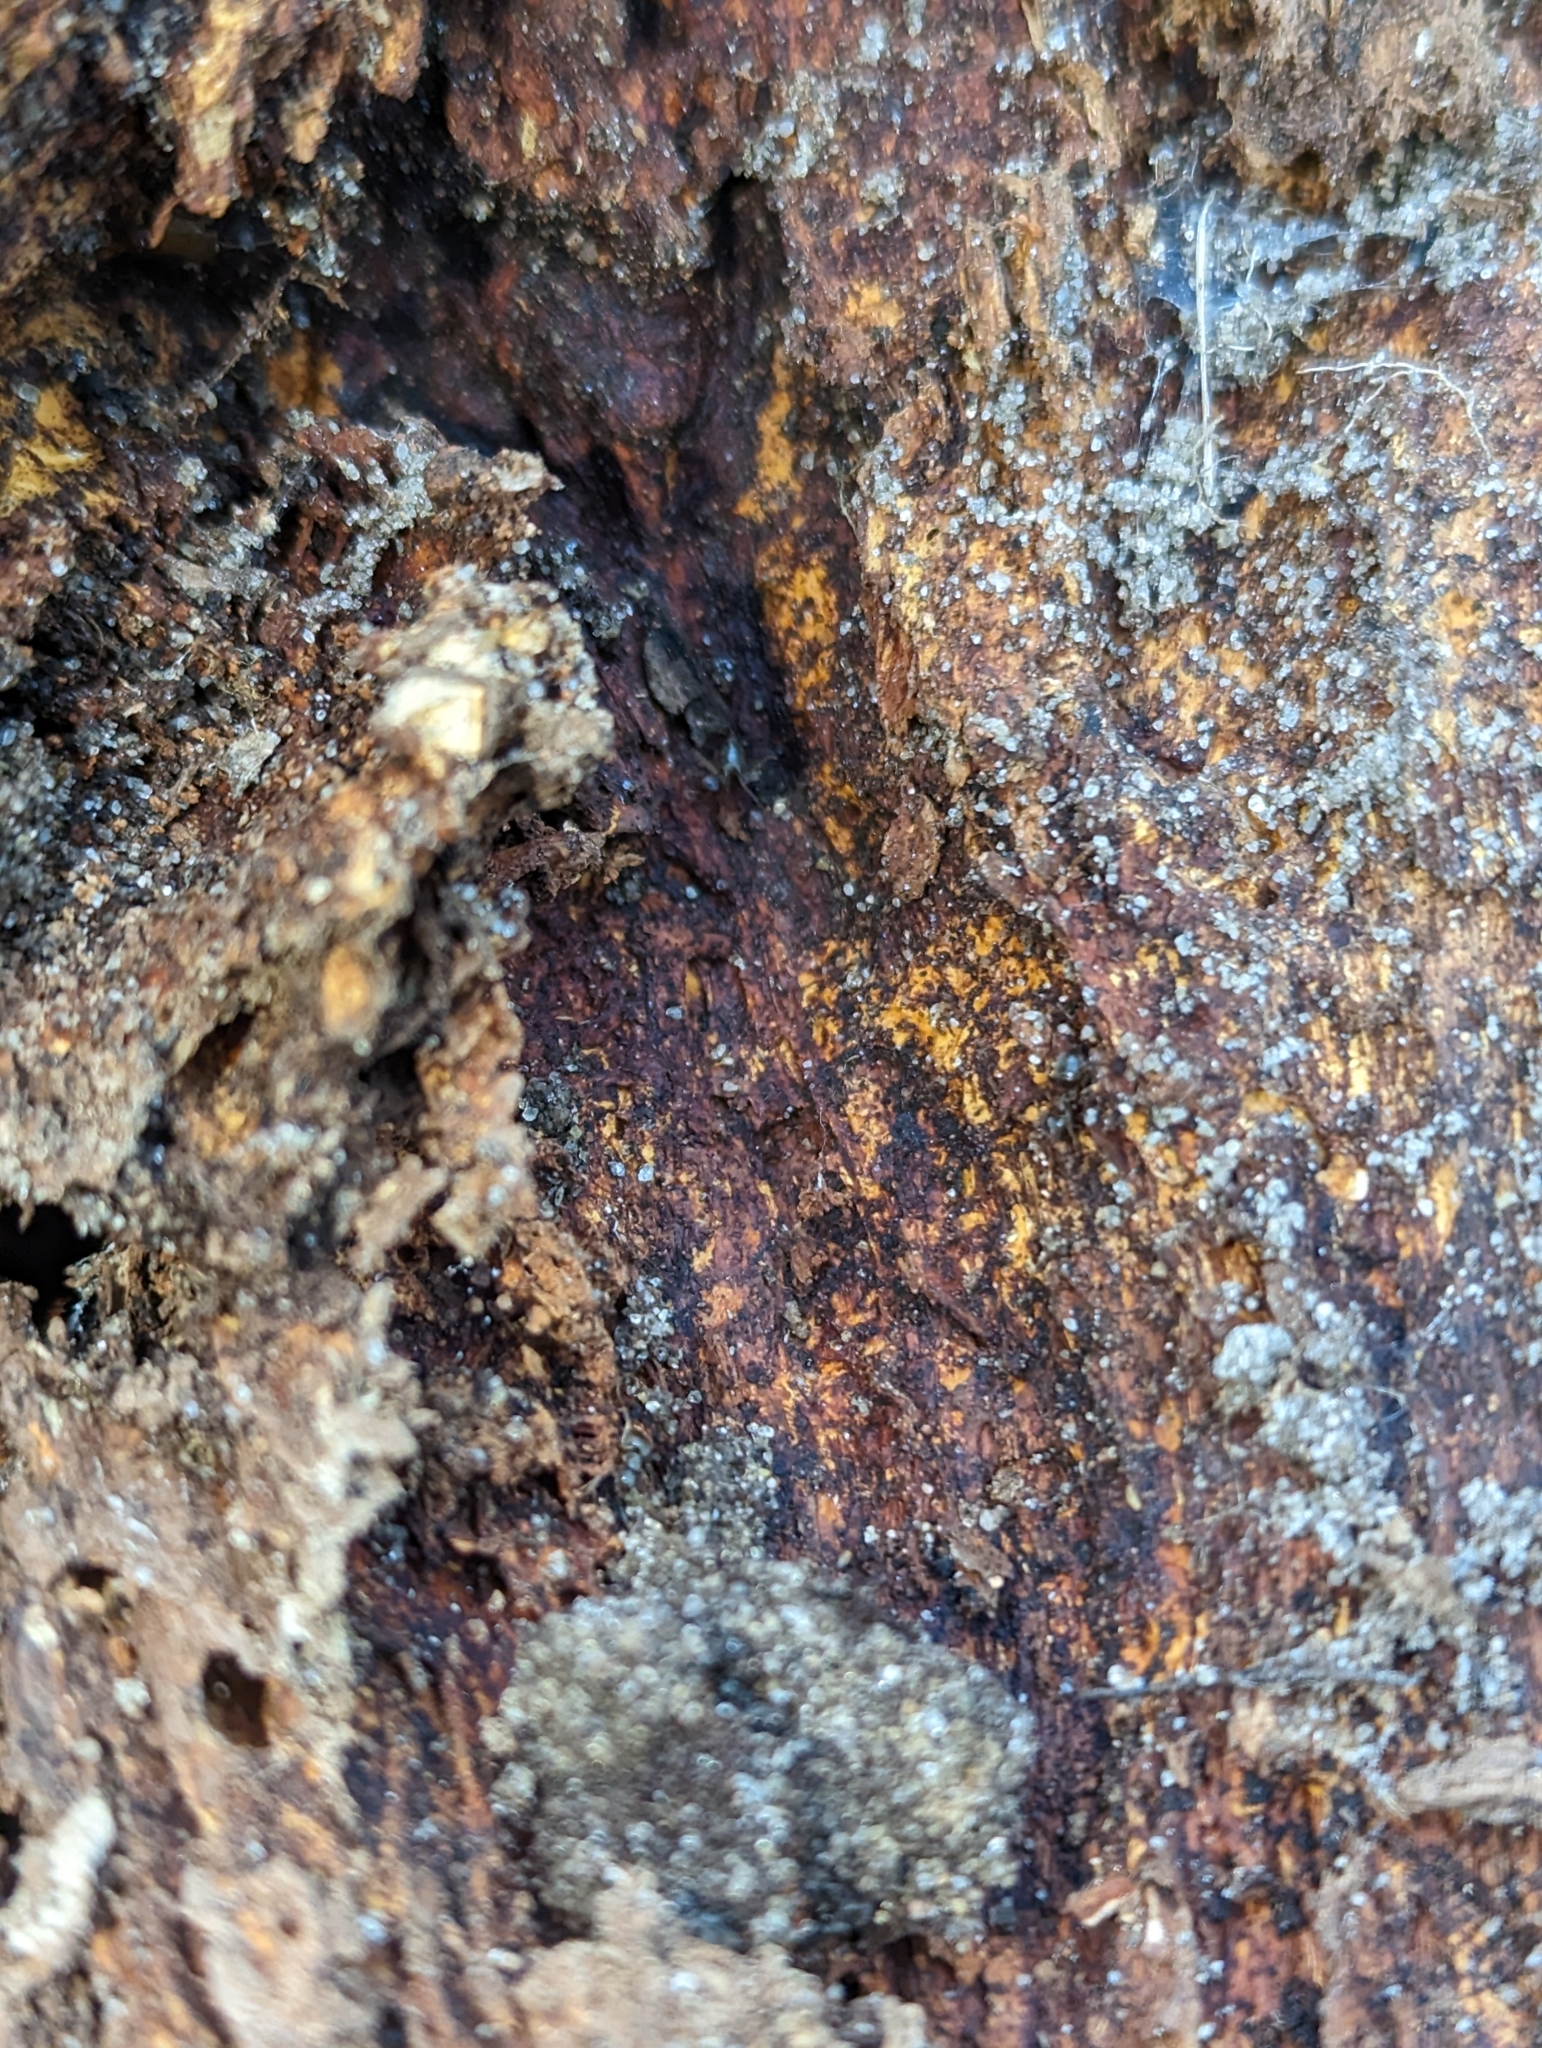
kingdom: Animalia
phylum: Arthropoda
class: Insecta
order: Hymenoptera
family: Formicidae
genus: Lasius
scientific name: Lasius americanus
